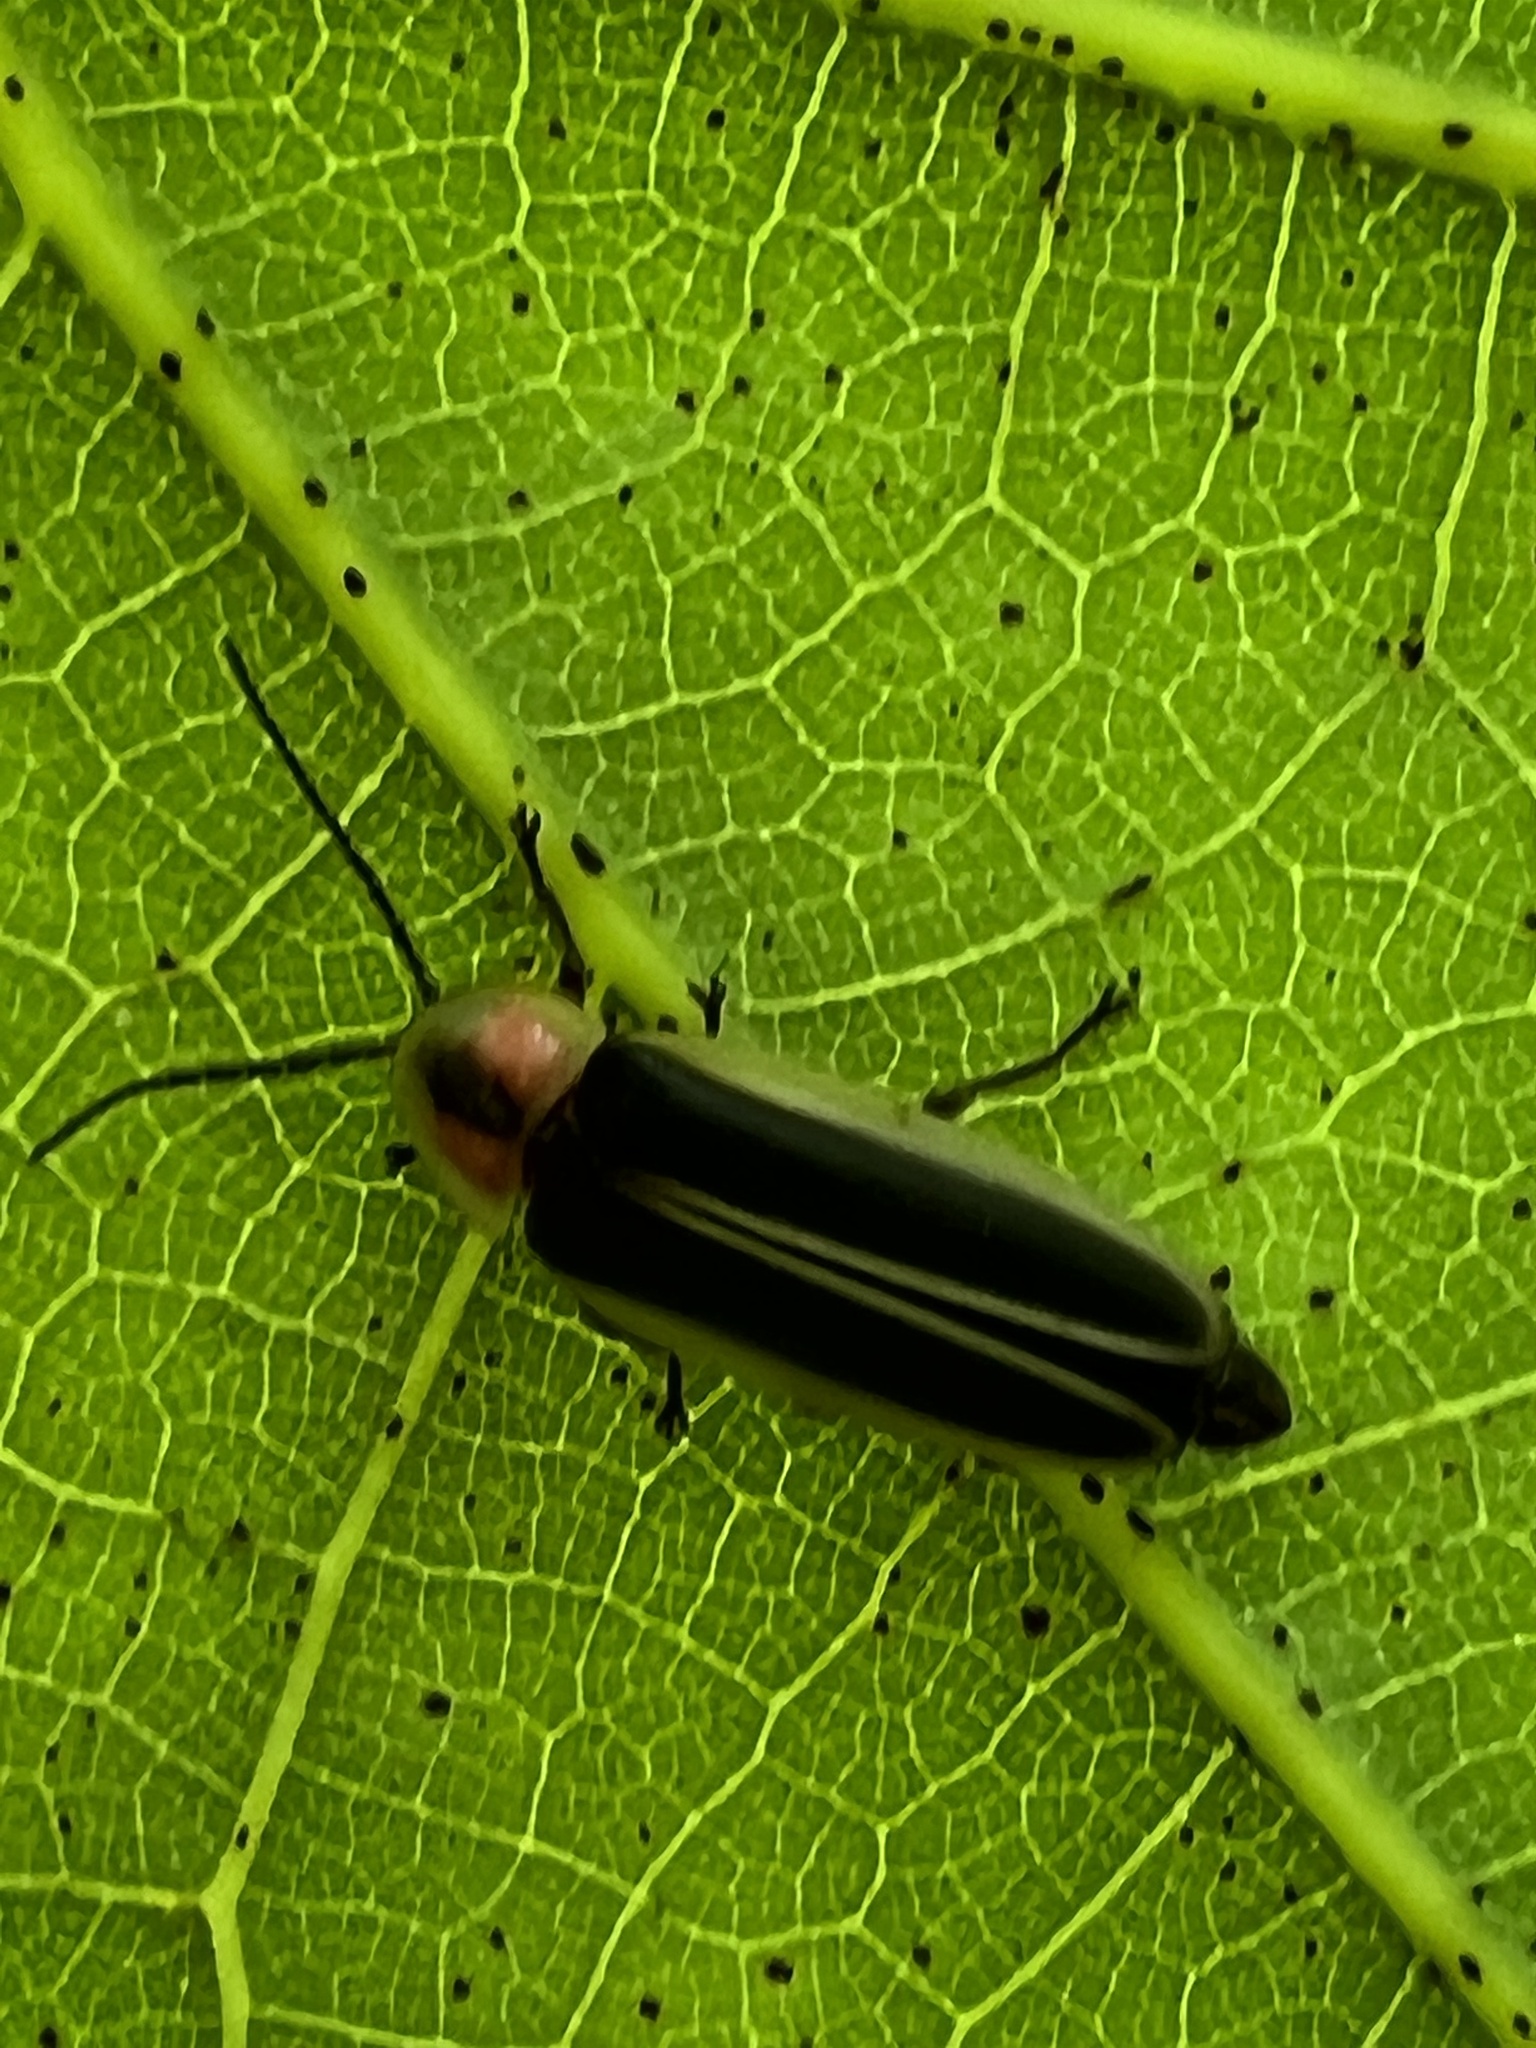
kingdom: Animalia
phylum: Arthropoda
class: Insecta
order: Coleoptera
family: Lampyridae
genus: Photinus
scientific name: Photinus pyralis
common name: Big dipper firefly
